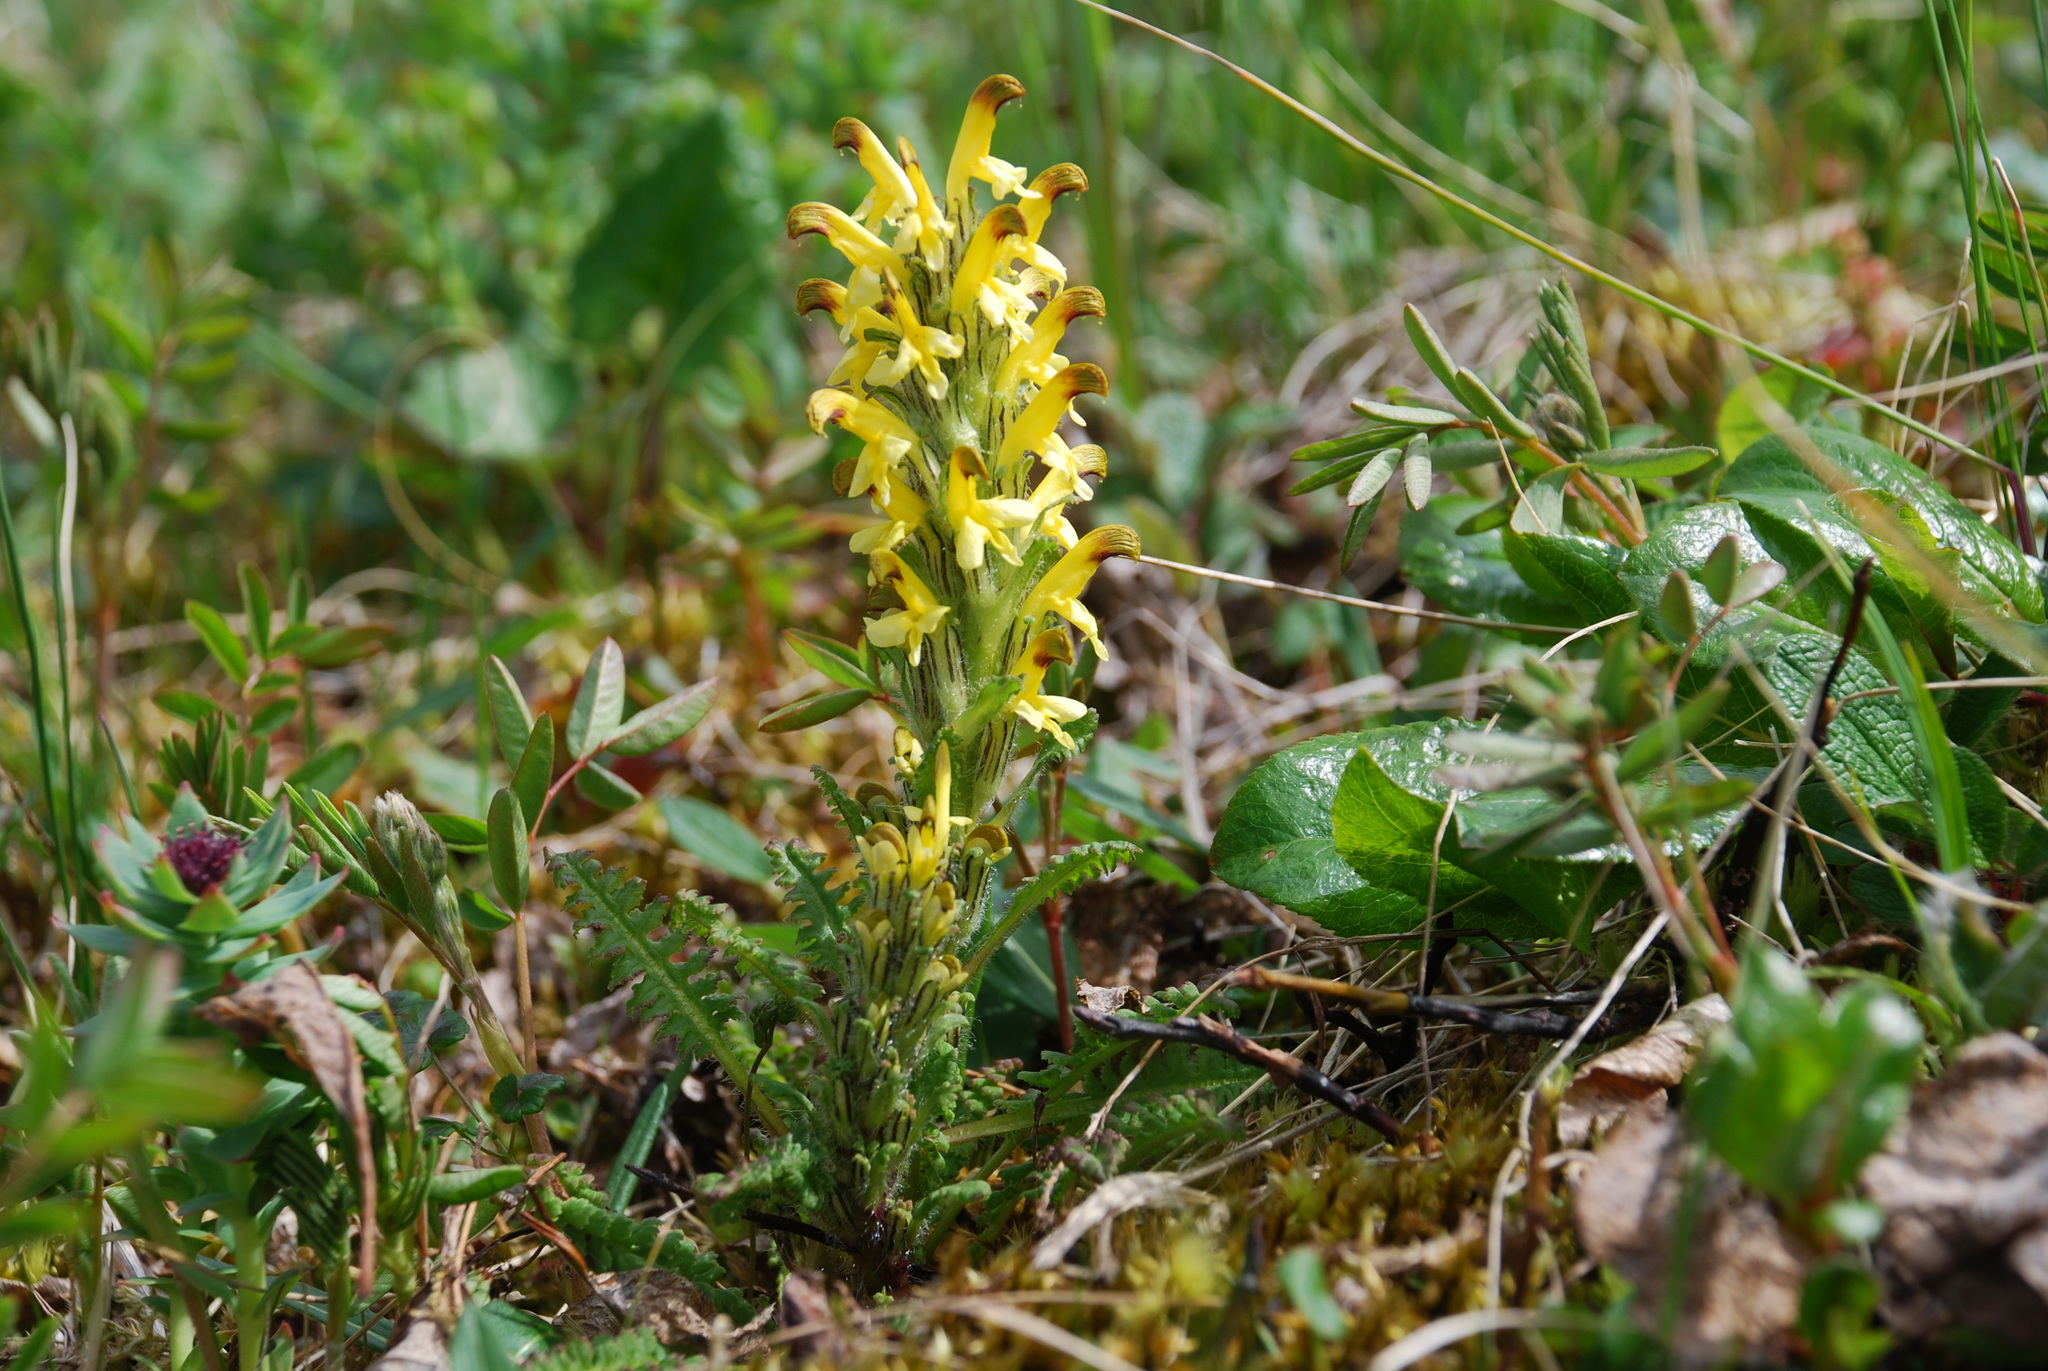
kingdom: Plantae
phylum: Tracheophyta
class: Magnoliopsida
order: Lamiales
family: Orobanchaceae
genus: Pedicularis
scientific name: Pedicularis oederi
